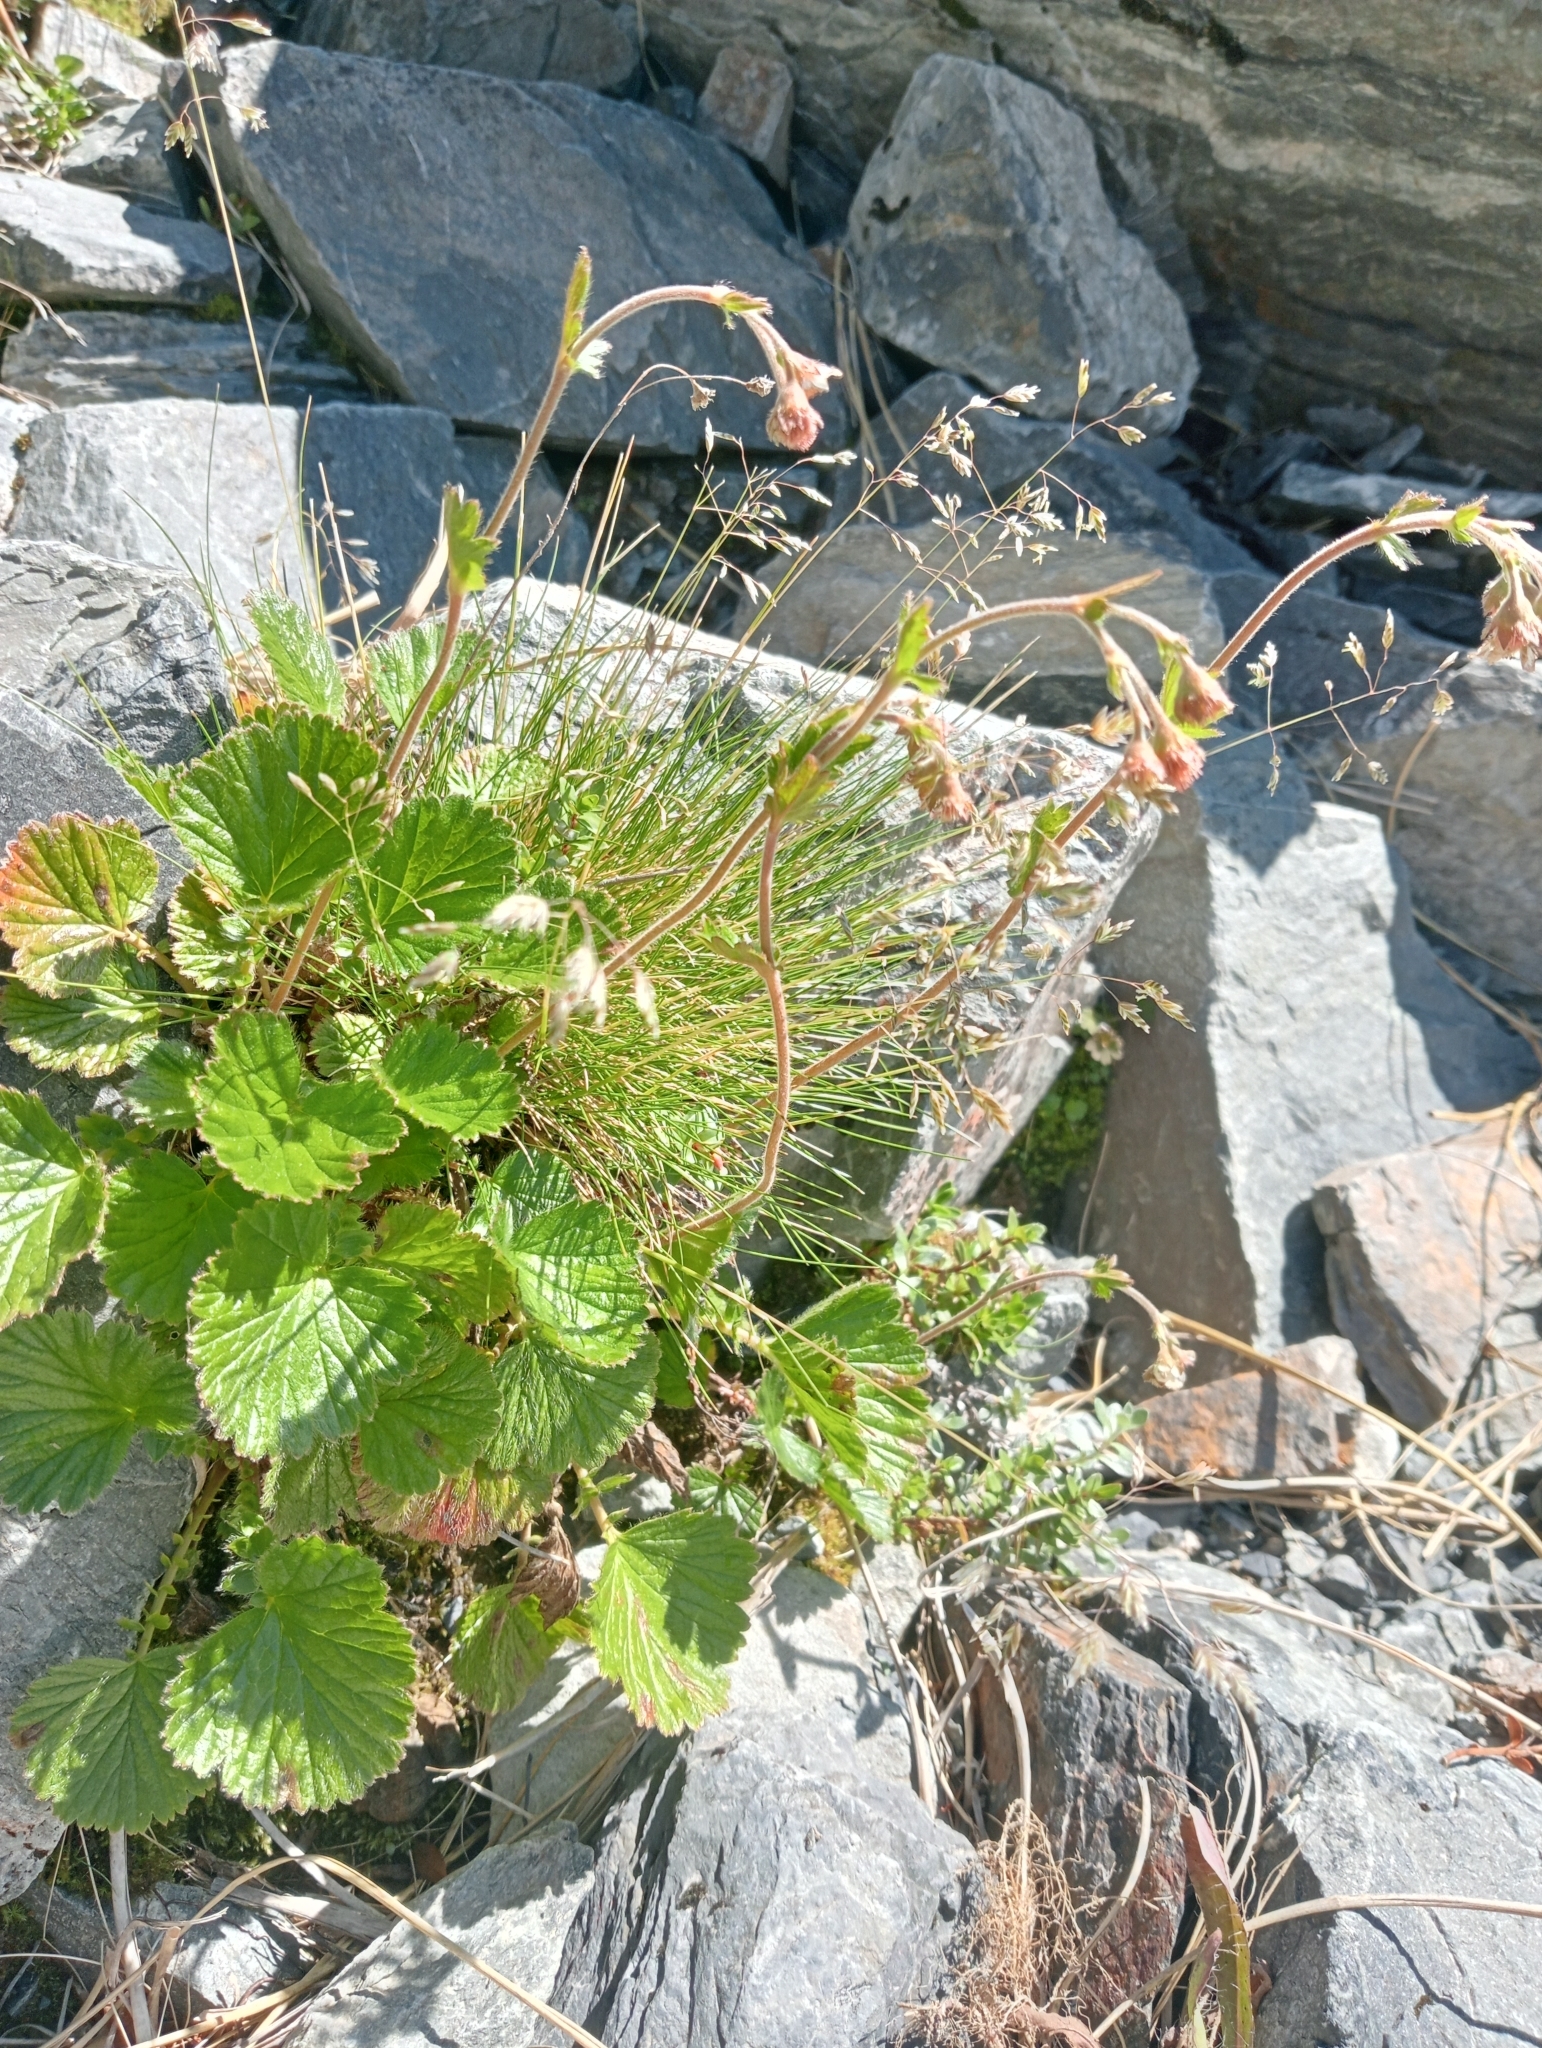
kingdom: Plantae
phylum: Tracheophyta
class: Magnoliopsida
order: Rosales
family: Rosaceae
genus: Geum
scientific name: Geum cockaynei
